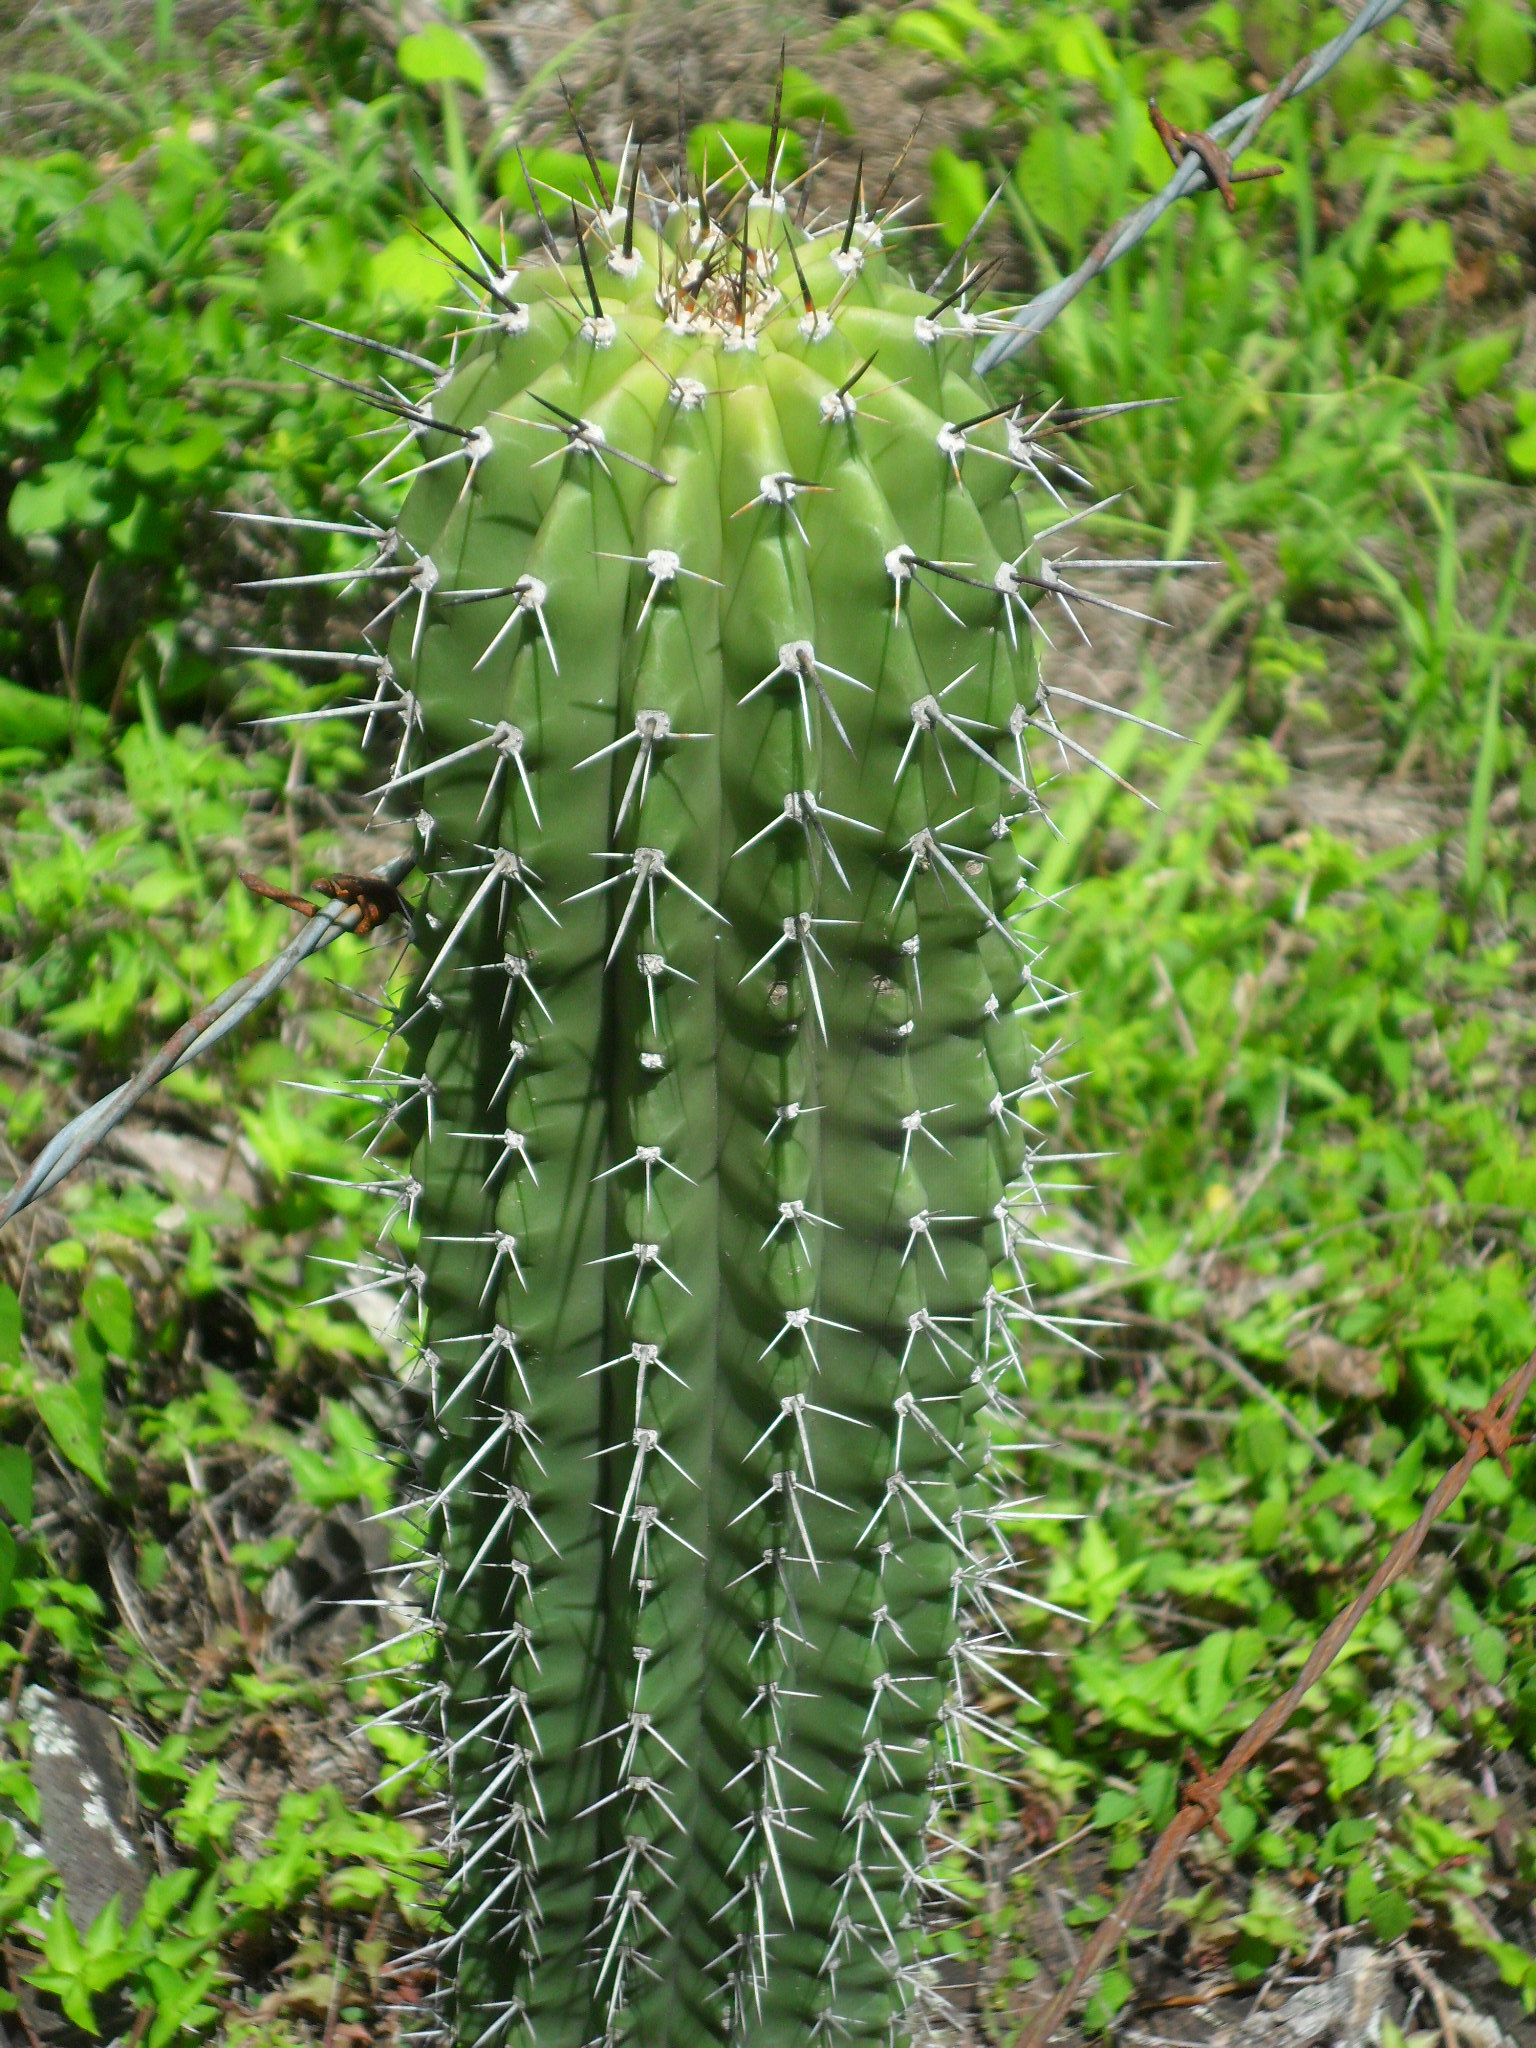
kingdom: Plantae
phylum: Tracheophyta
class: Magnoliopsida
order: Caryophyllales
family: Cactaceae
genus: Cephalocereus
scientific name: Cephalocereus scoparius
